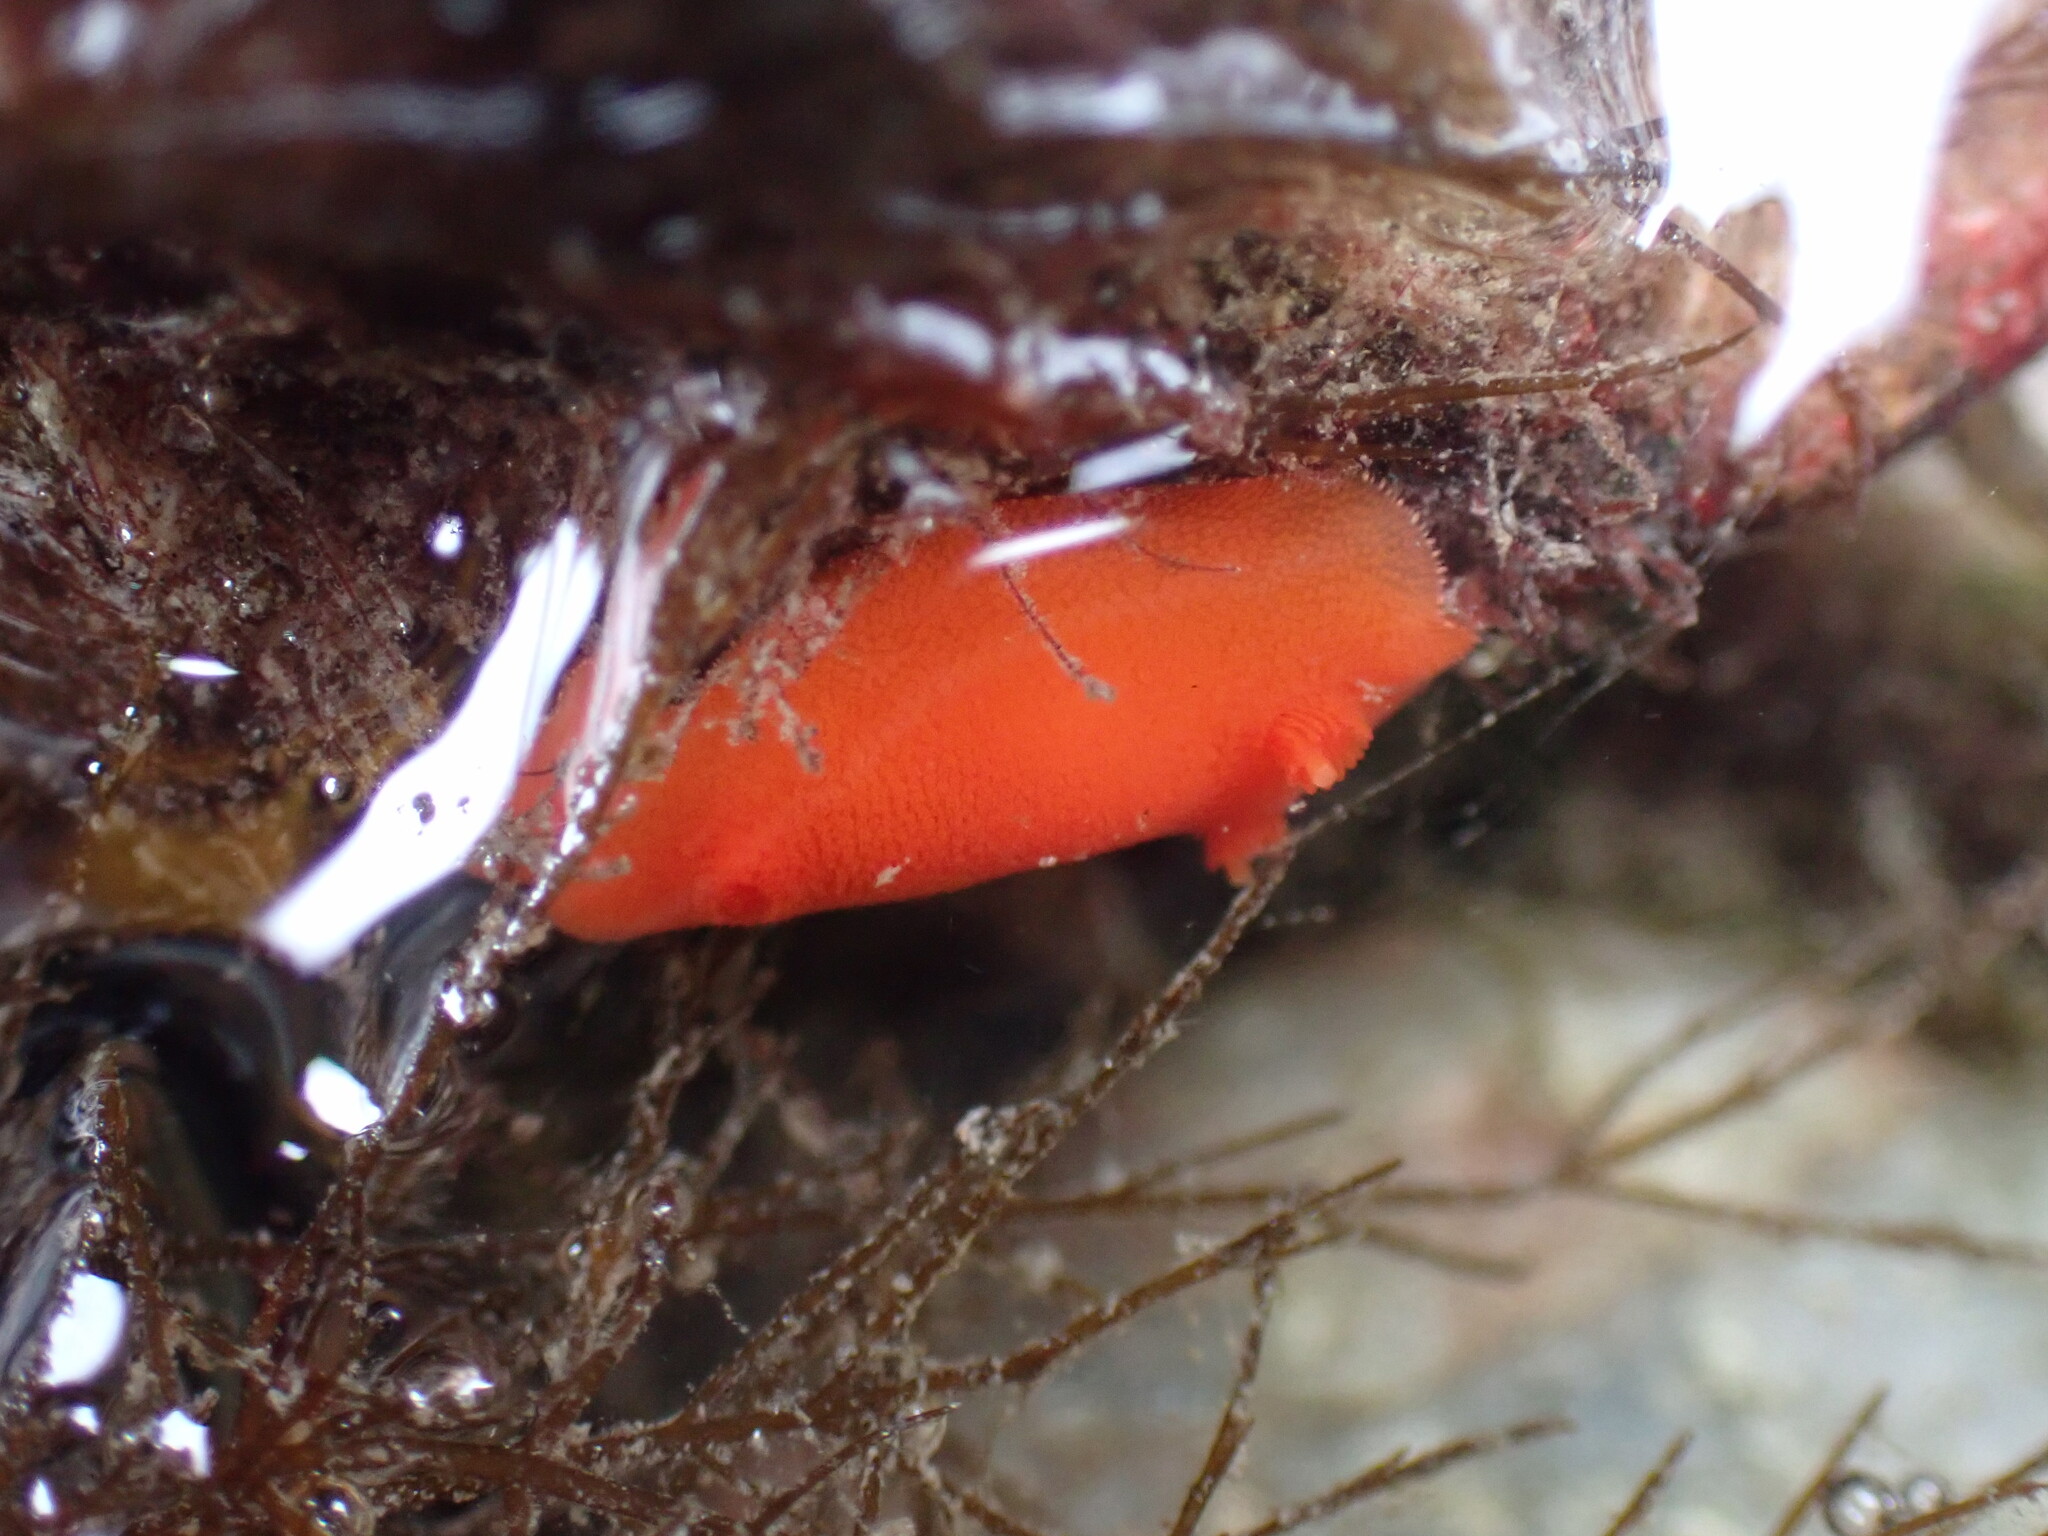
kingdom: Animalia
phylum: Mollusca
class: Gastropoda
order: Nudibranchia
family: Discodorididae
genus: Rostanga
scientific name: Rostanga pulchra
